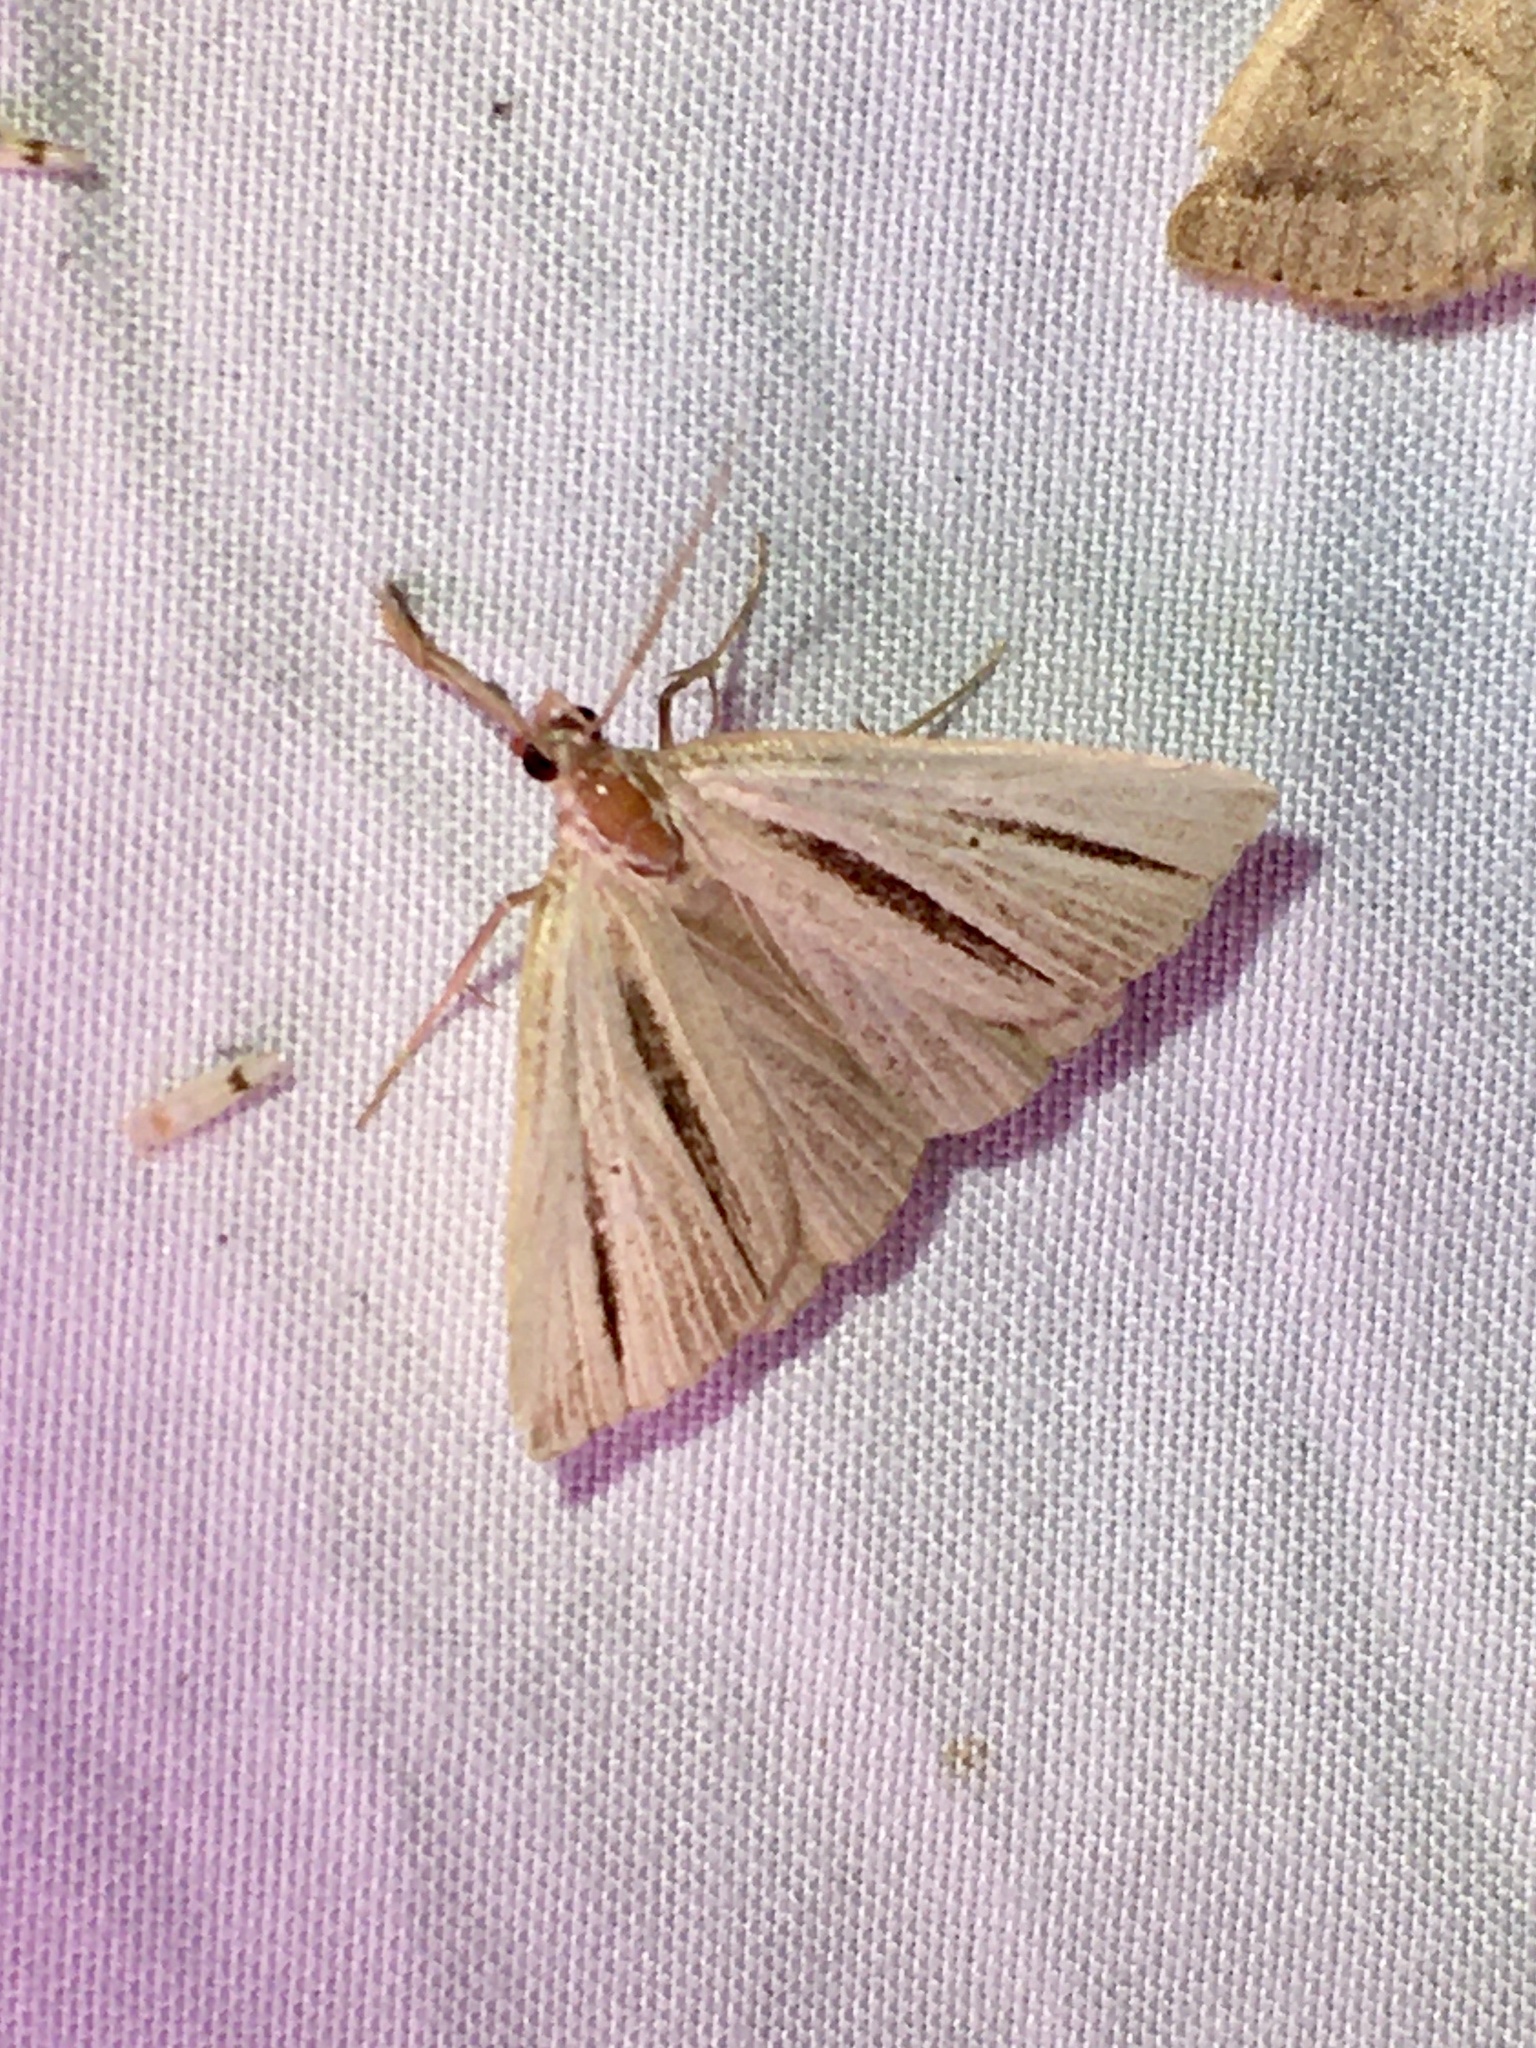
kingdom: Animalia
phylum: Arthropoda
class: Insecta
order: Lepidoptera
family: Erebidae
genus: Macrochilo
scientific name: Macrochilo bivittata
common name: Two-striped cord grass moth
